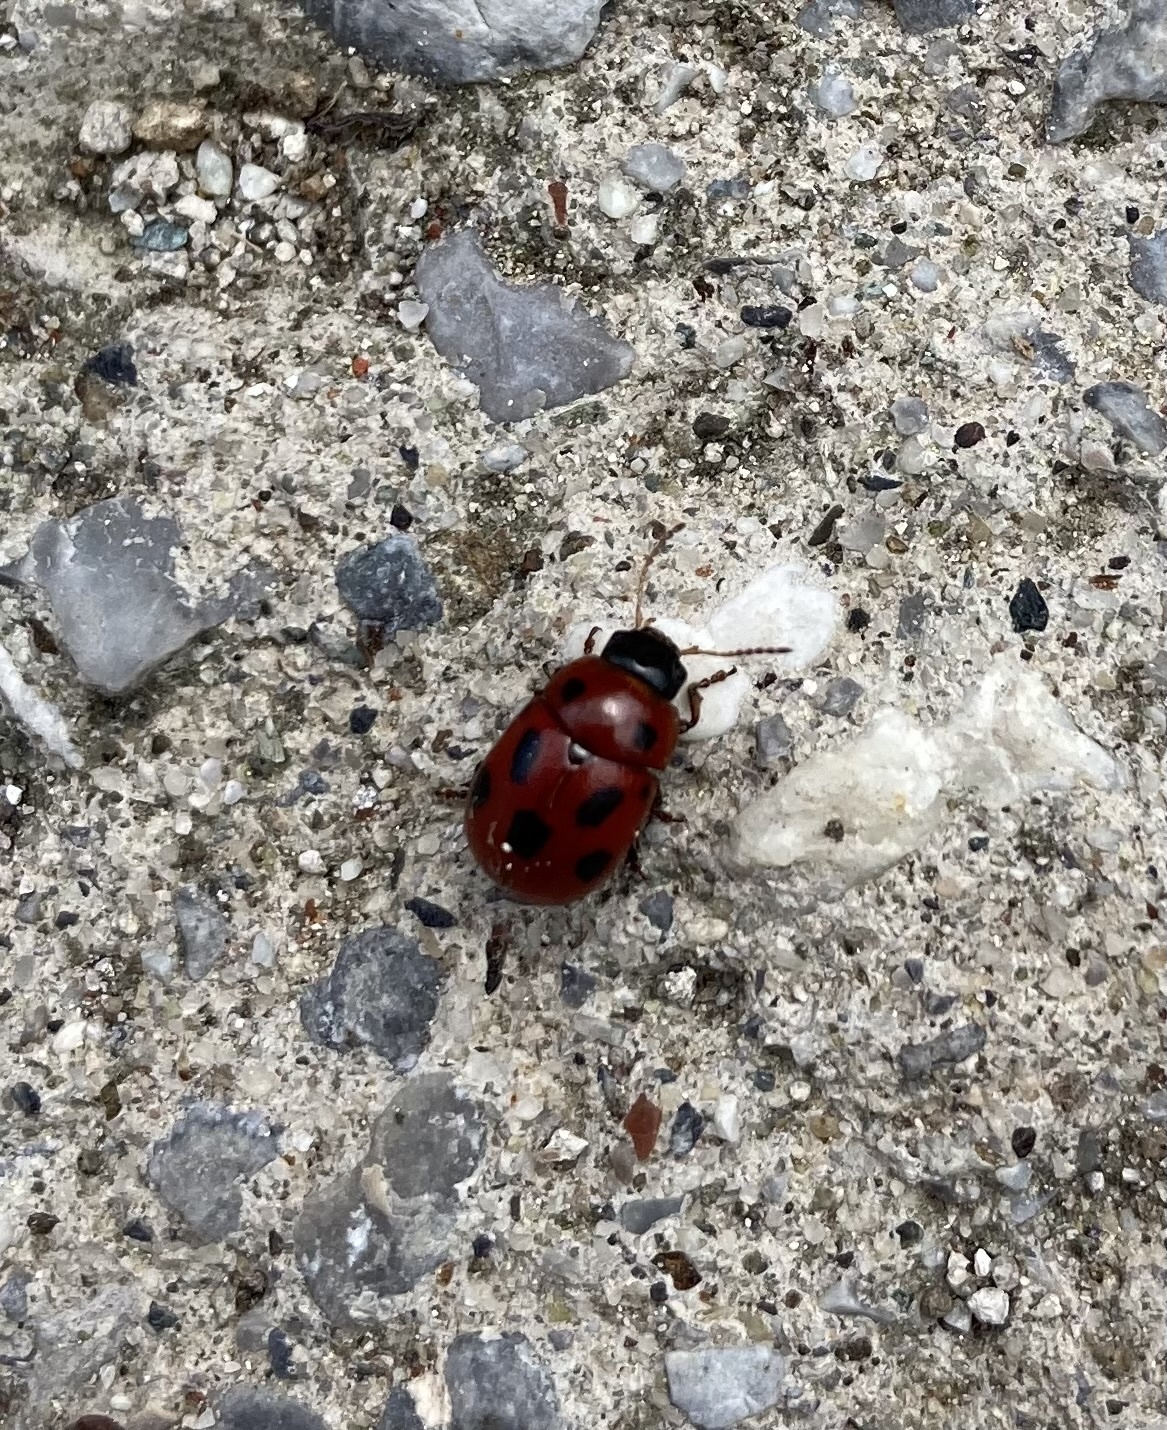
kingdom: Animalia
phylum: Arthropoda
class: Insecta
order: Coleoptera
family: Chrysomelidae
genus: Gonioctena
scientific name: Gonioctena fornicata
